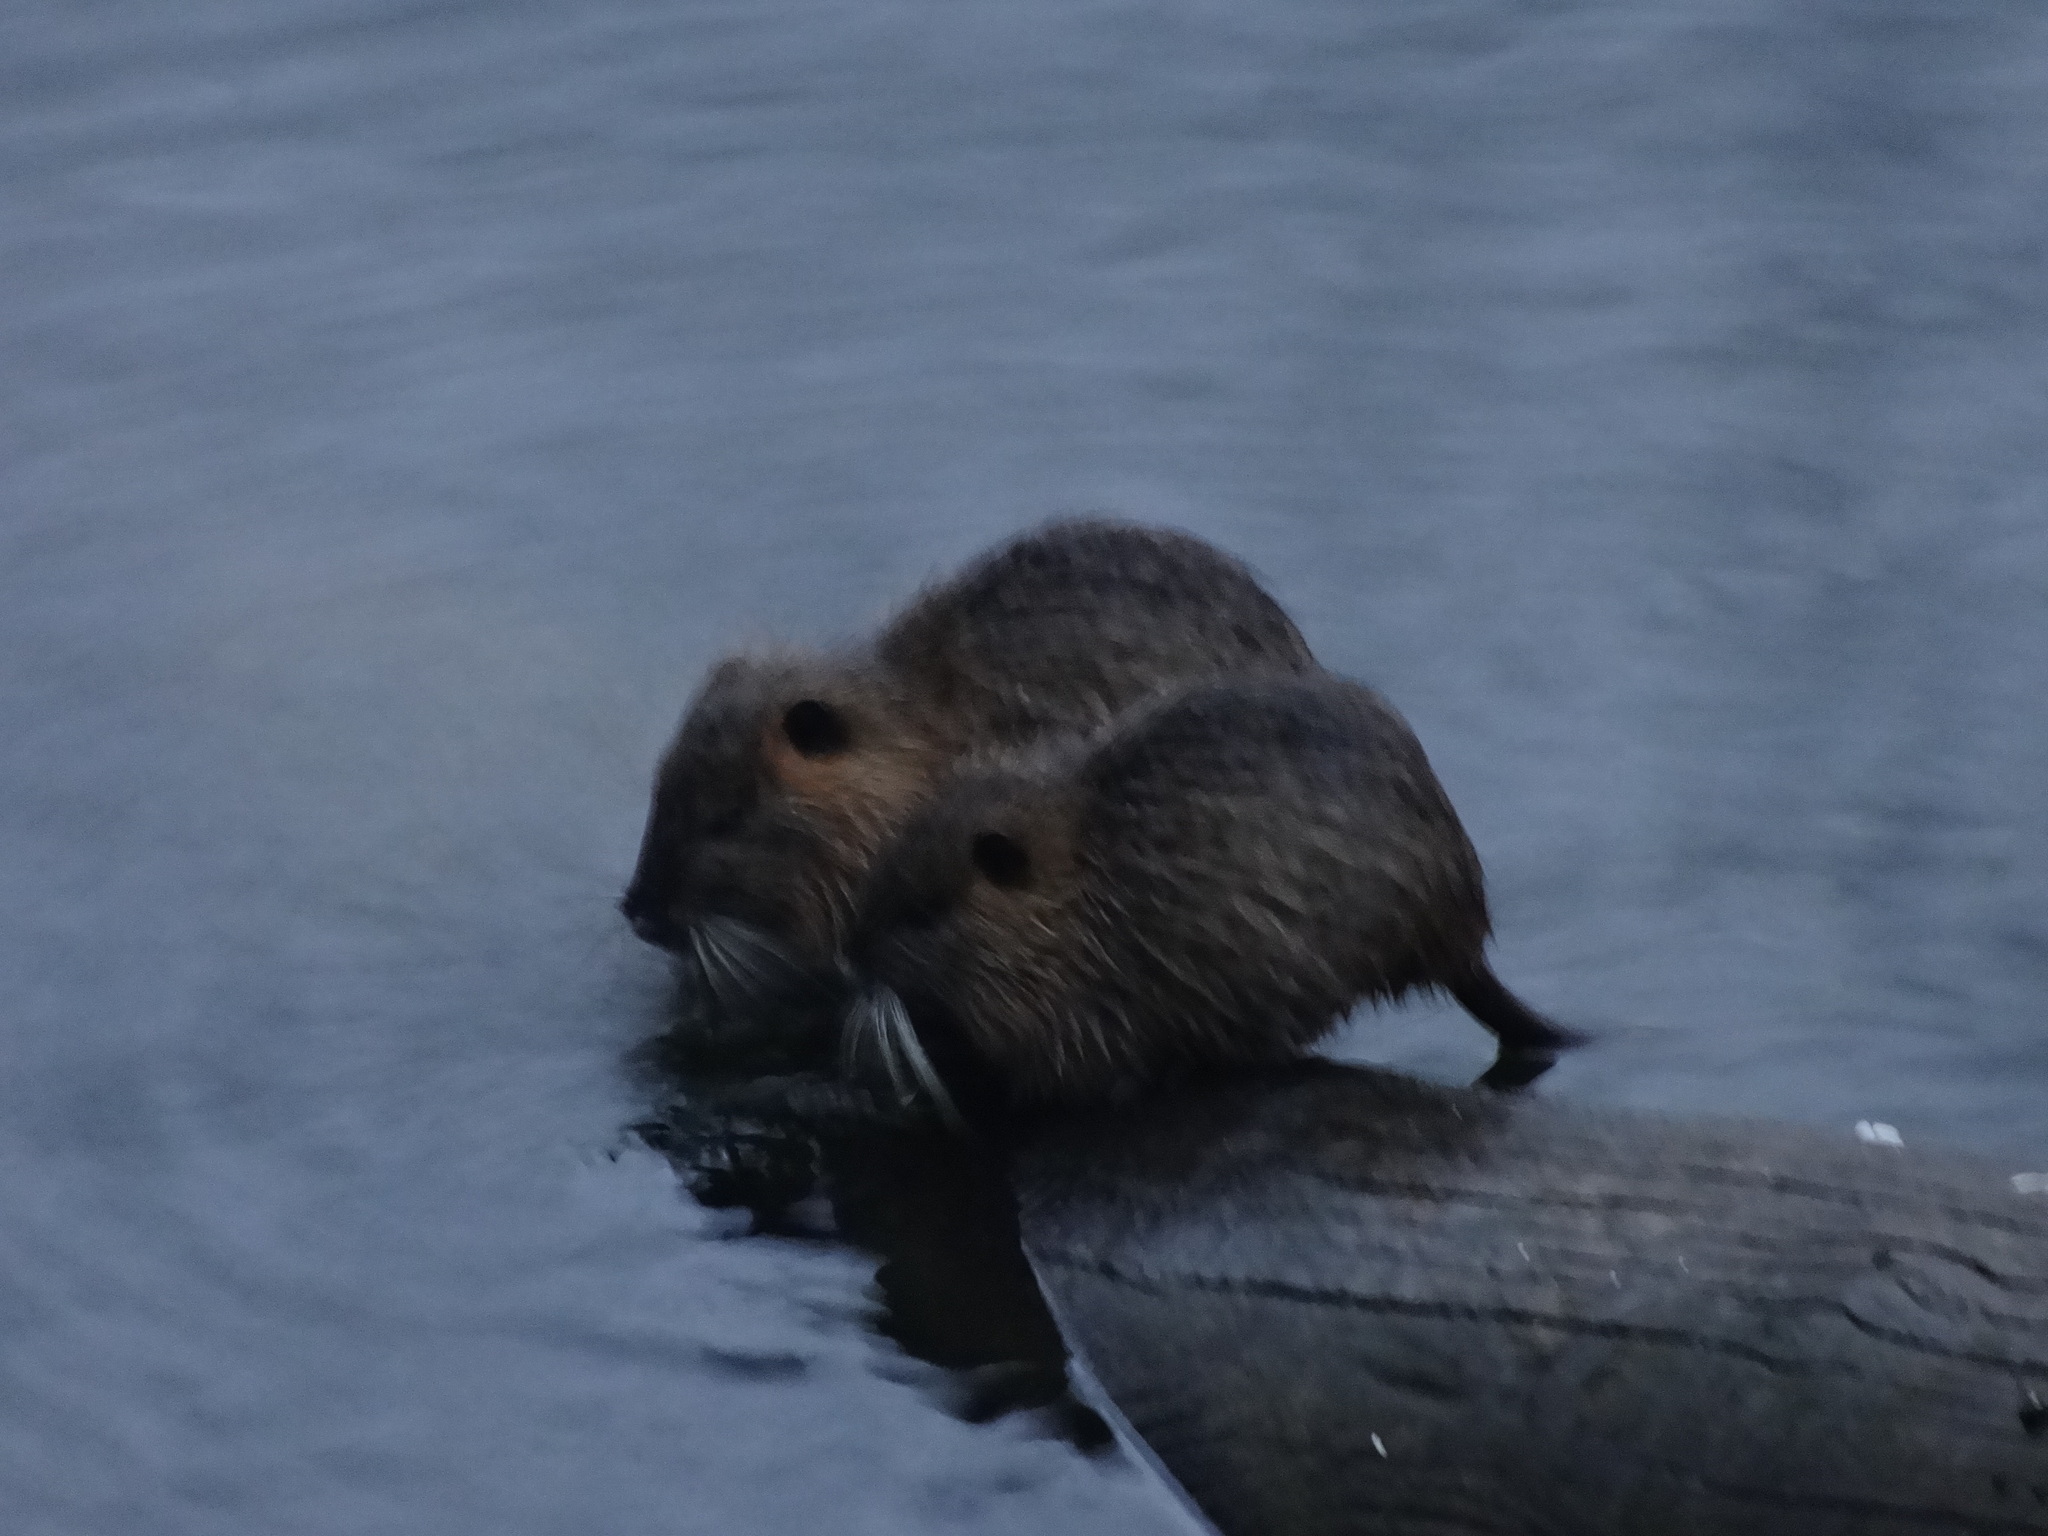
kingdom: Animalia
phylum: Chordata
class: Mammalia
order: Rodentia
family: Myocastoridae
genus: Myocastor
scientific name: Myocastor coypus
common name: Coypu
